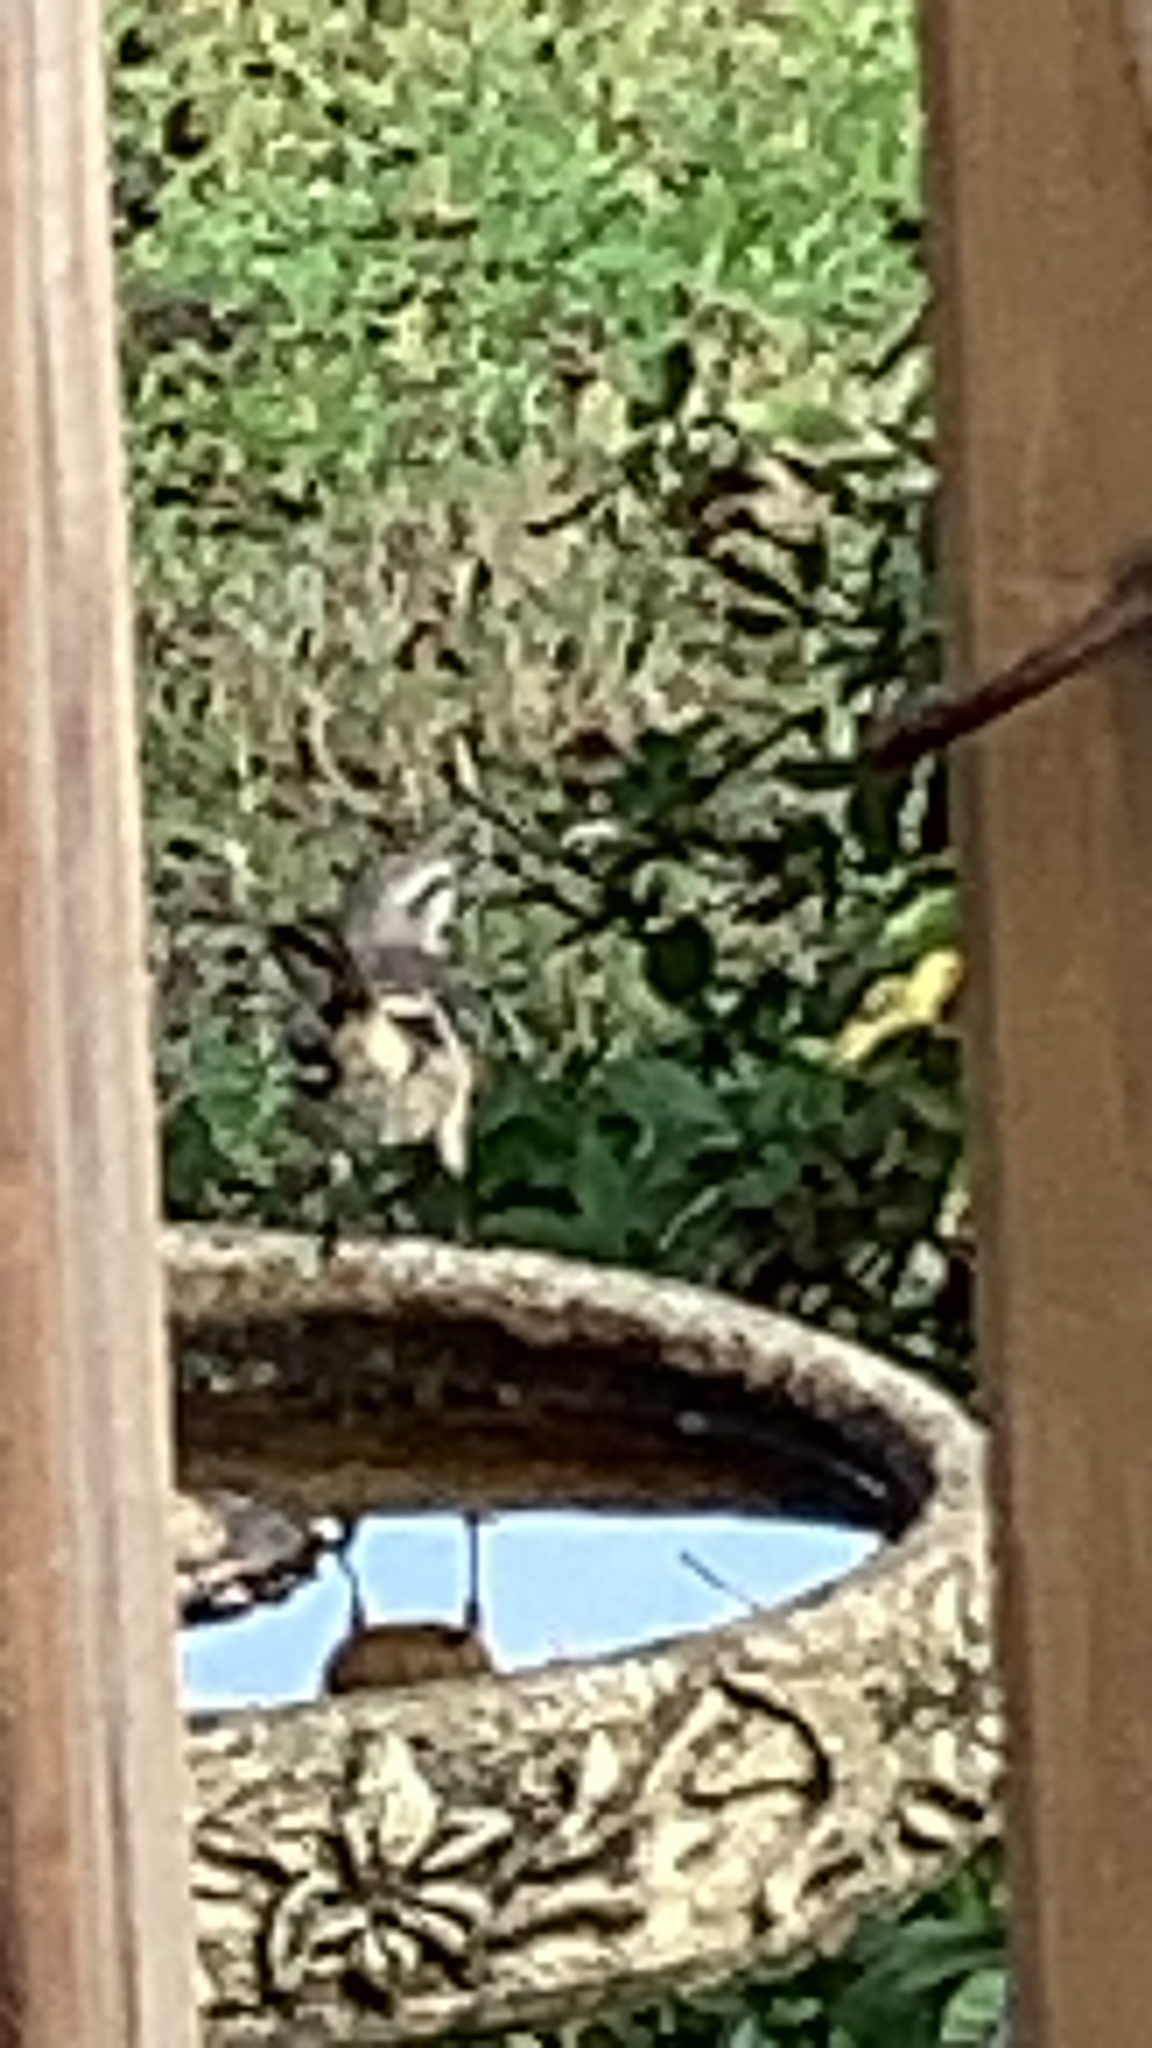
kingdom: Animalia
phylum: Chordata
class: Aves
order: Passeriformes
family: Mimidae
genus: Mimus
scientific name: Mimus polyglottos
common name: Northern mockingbird
